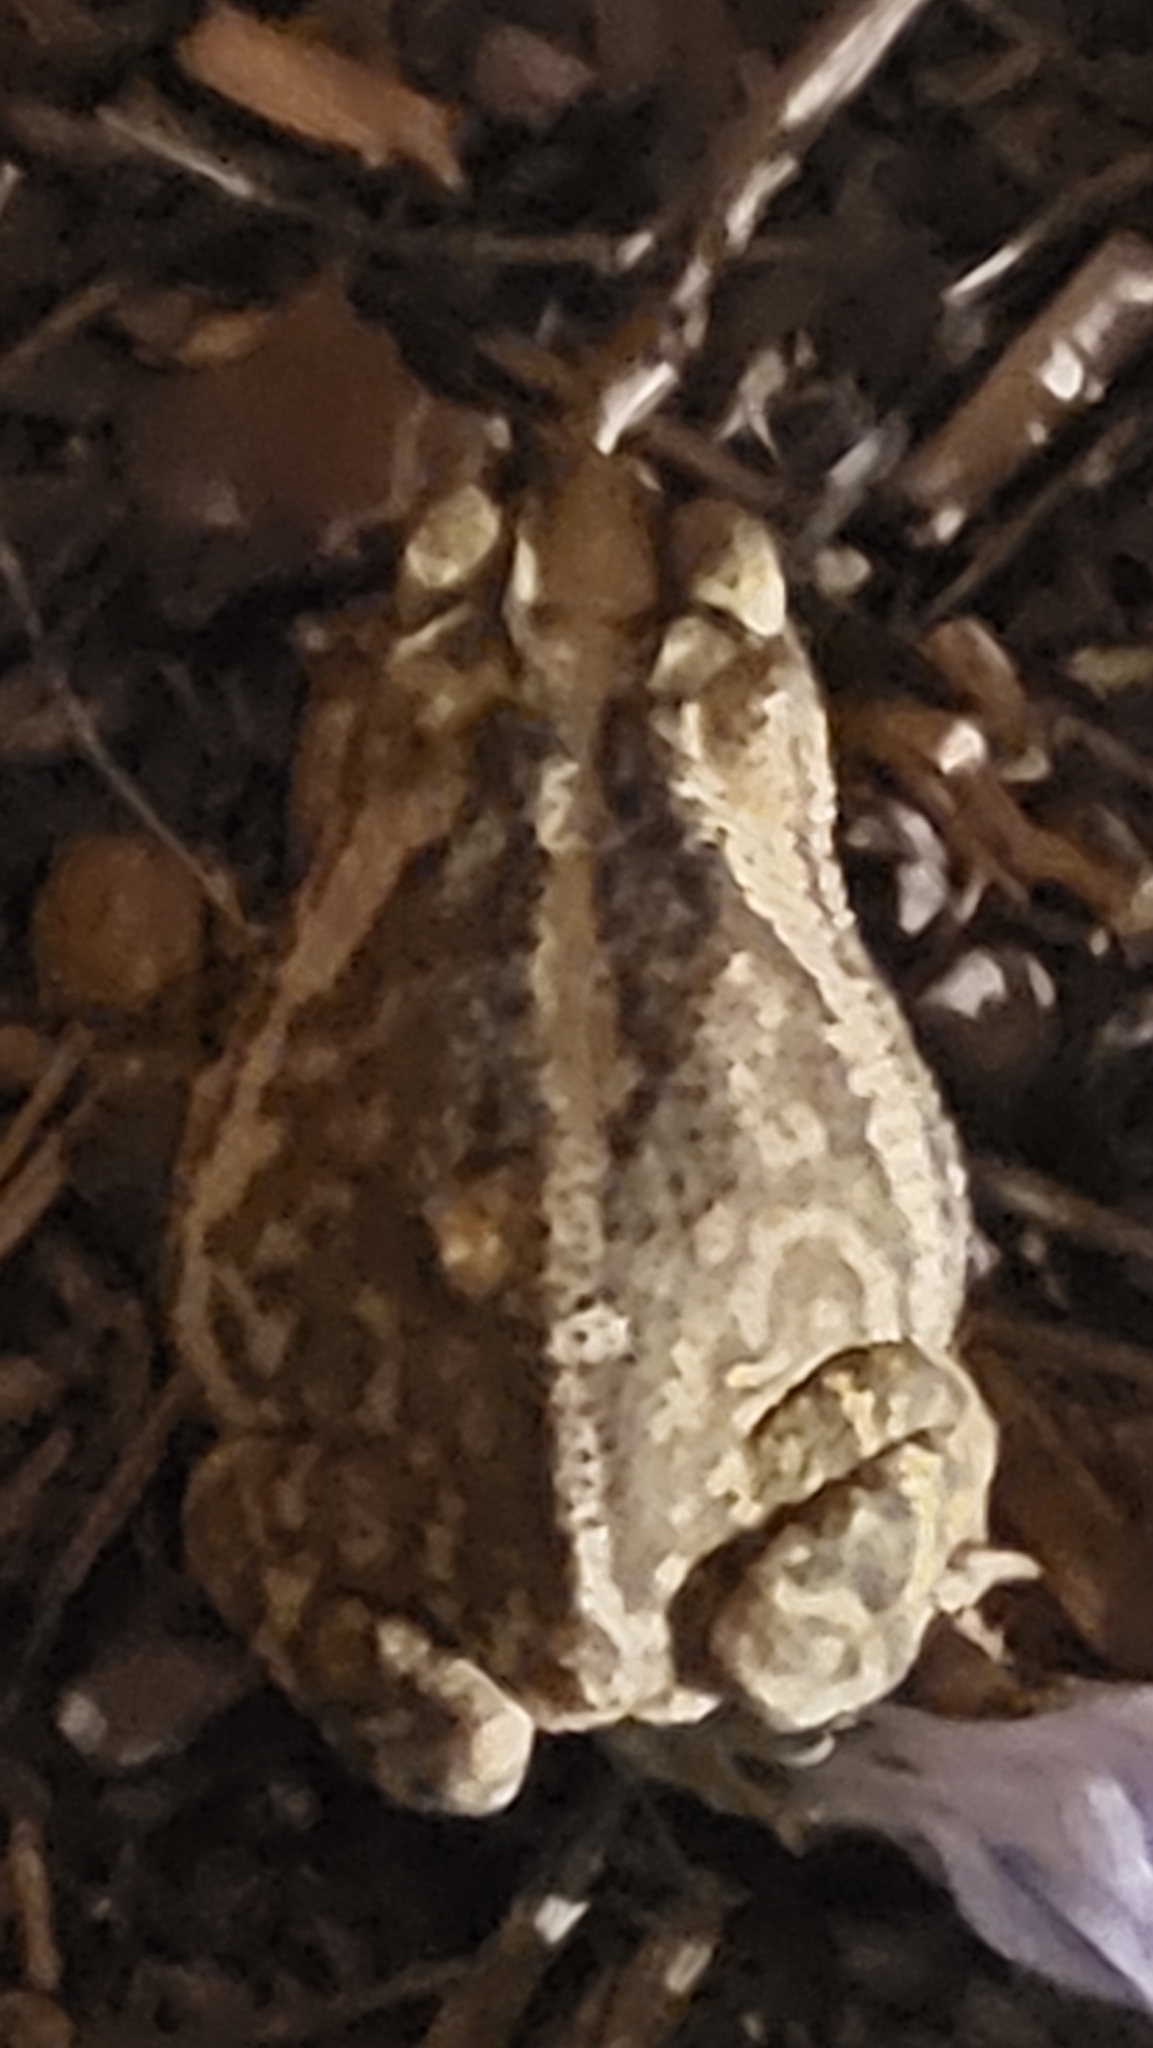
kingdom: Animalia
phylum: Chordata
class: Amphibia
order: Anura
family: Bufonidae
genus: Incilius
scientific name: Incilius nebulifer
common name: Gulf coast toad
